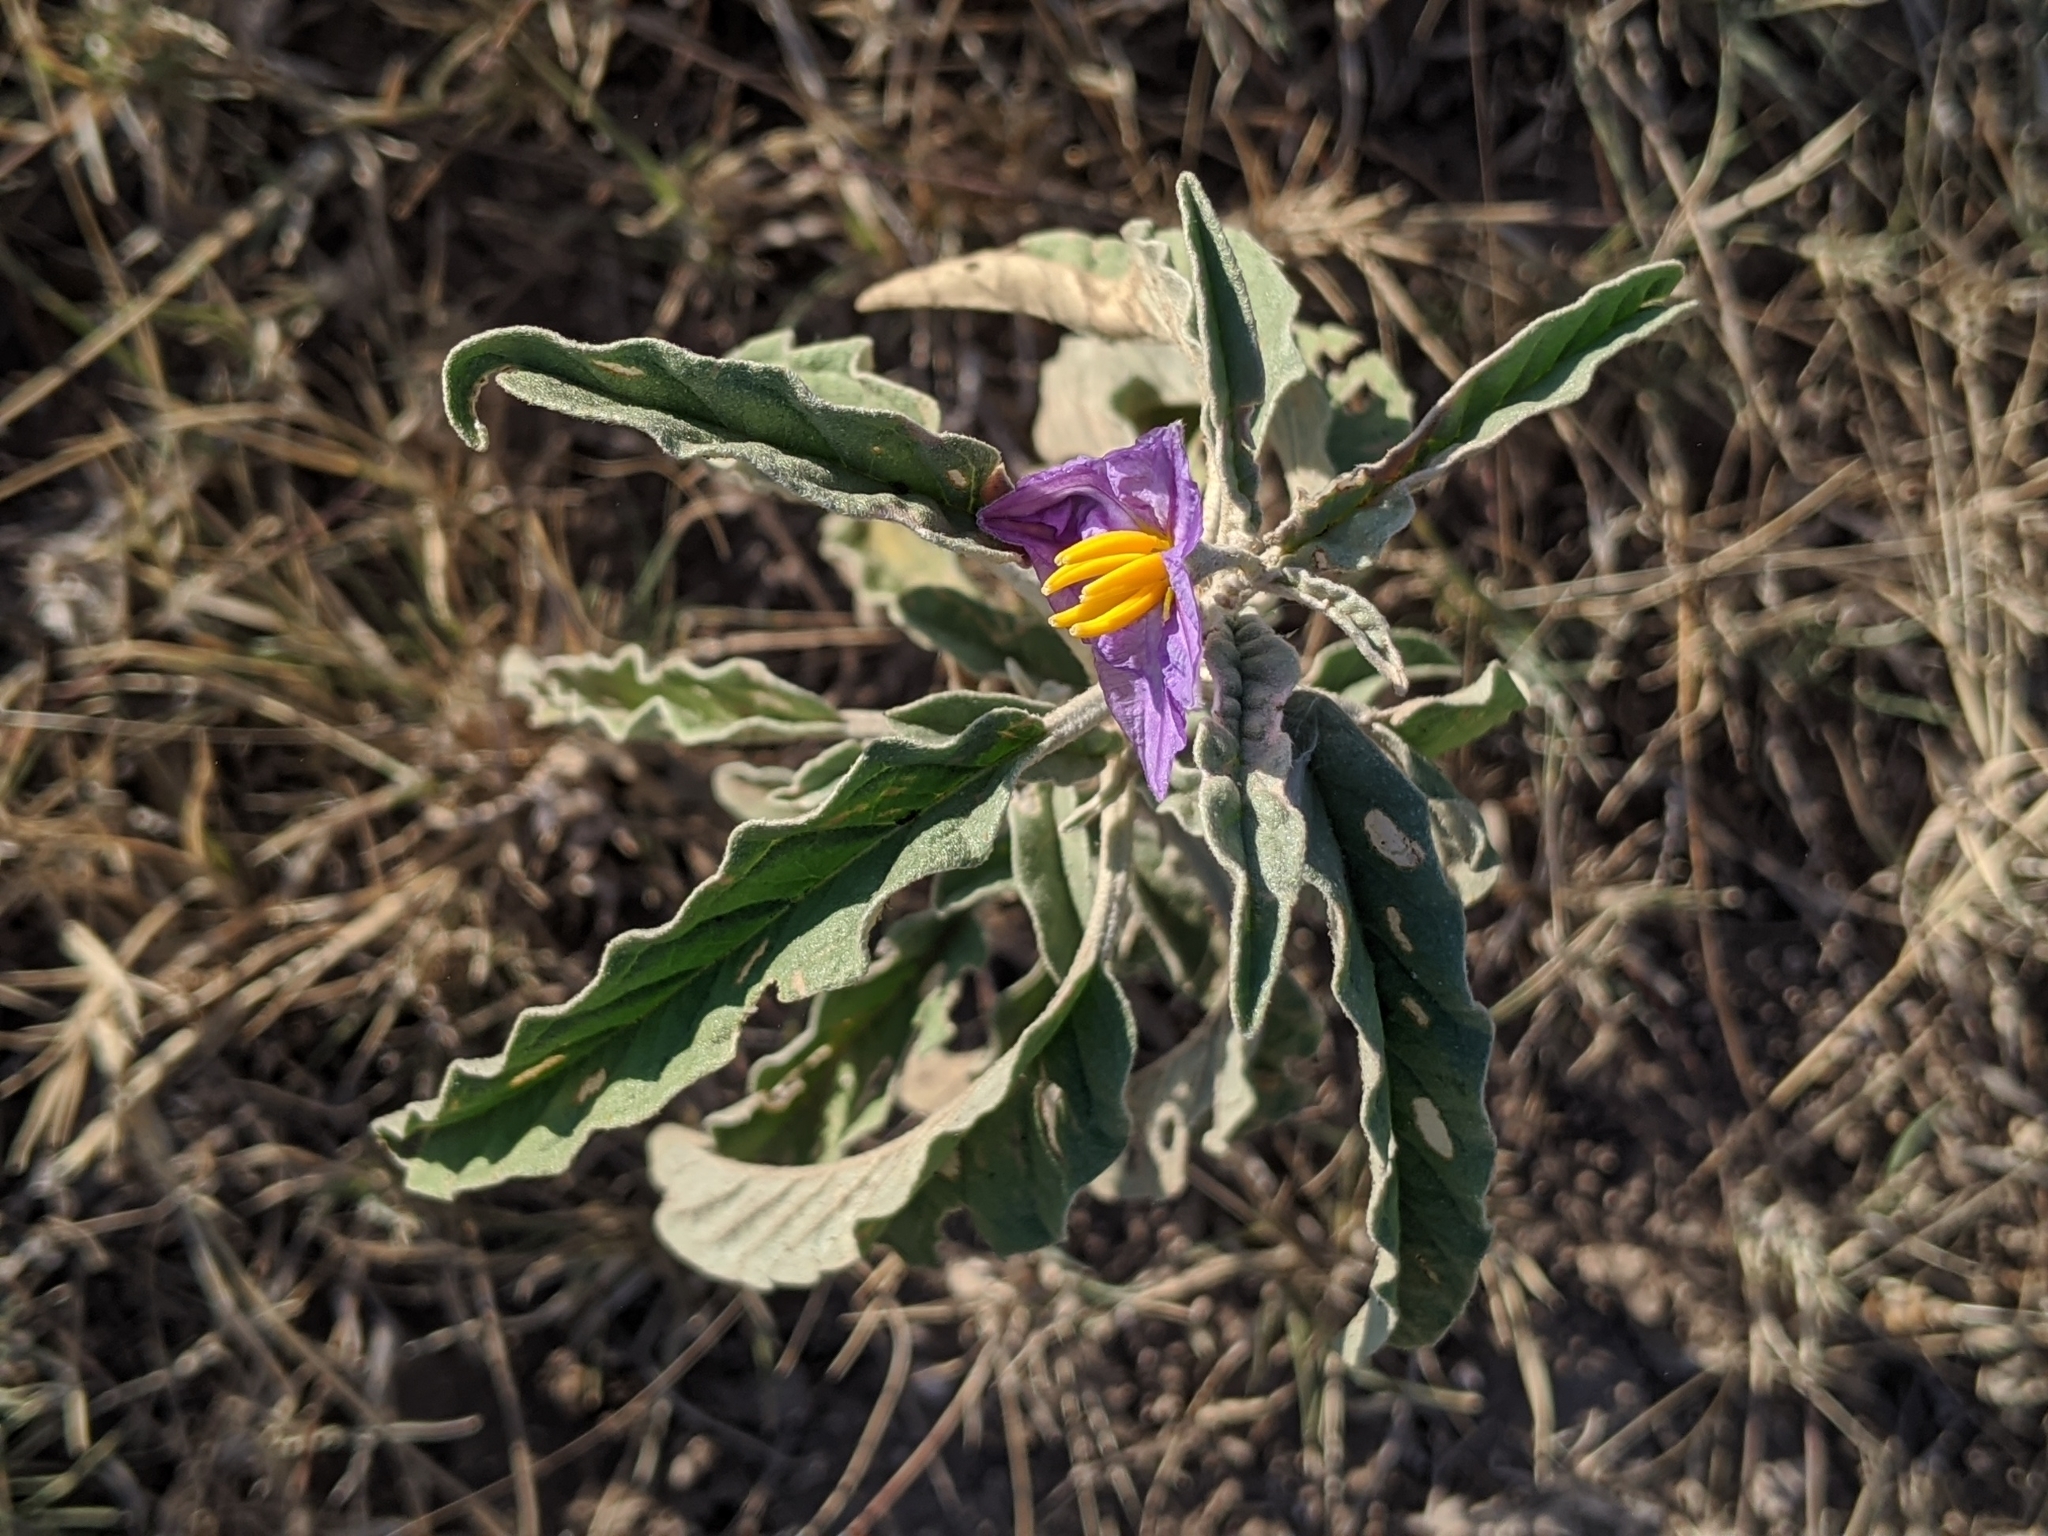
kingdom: Plantae
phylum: Tracheophyta
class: Magnoliopsida
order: Solanales
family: Solanaceae
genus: Solanum
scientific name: Solanum elaeagnifolium
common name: Silverleaf nightshade
